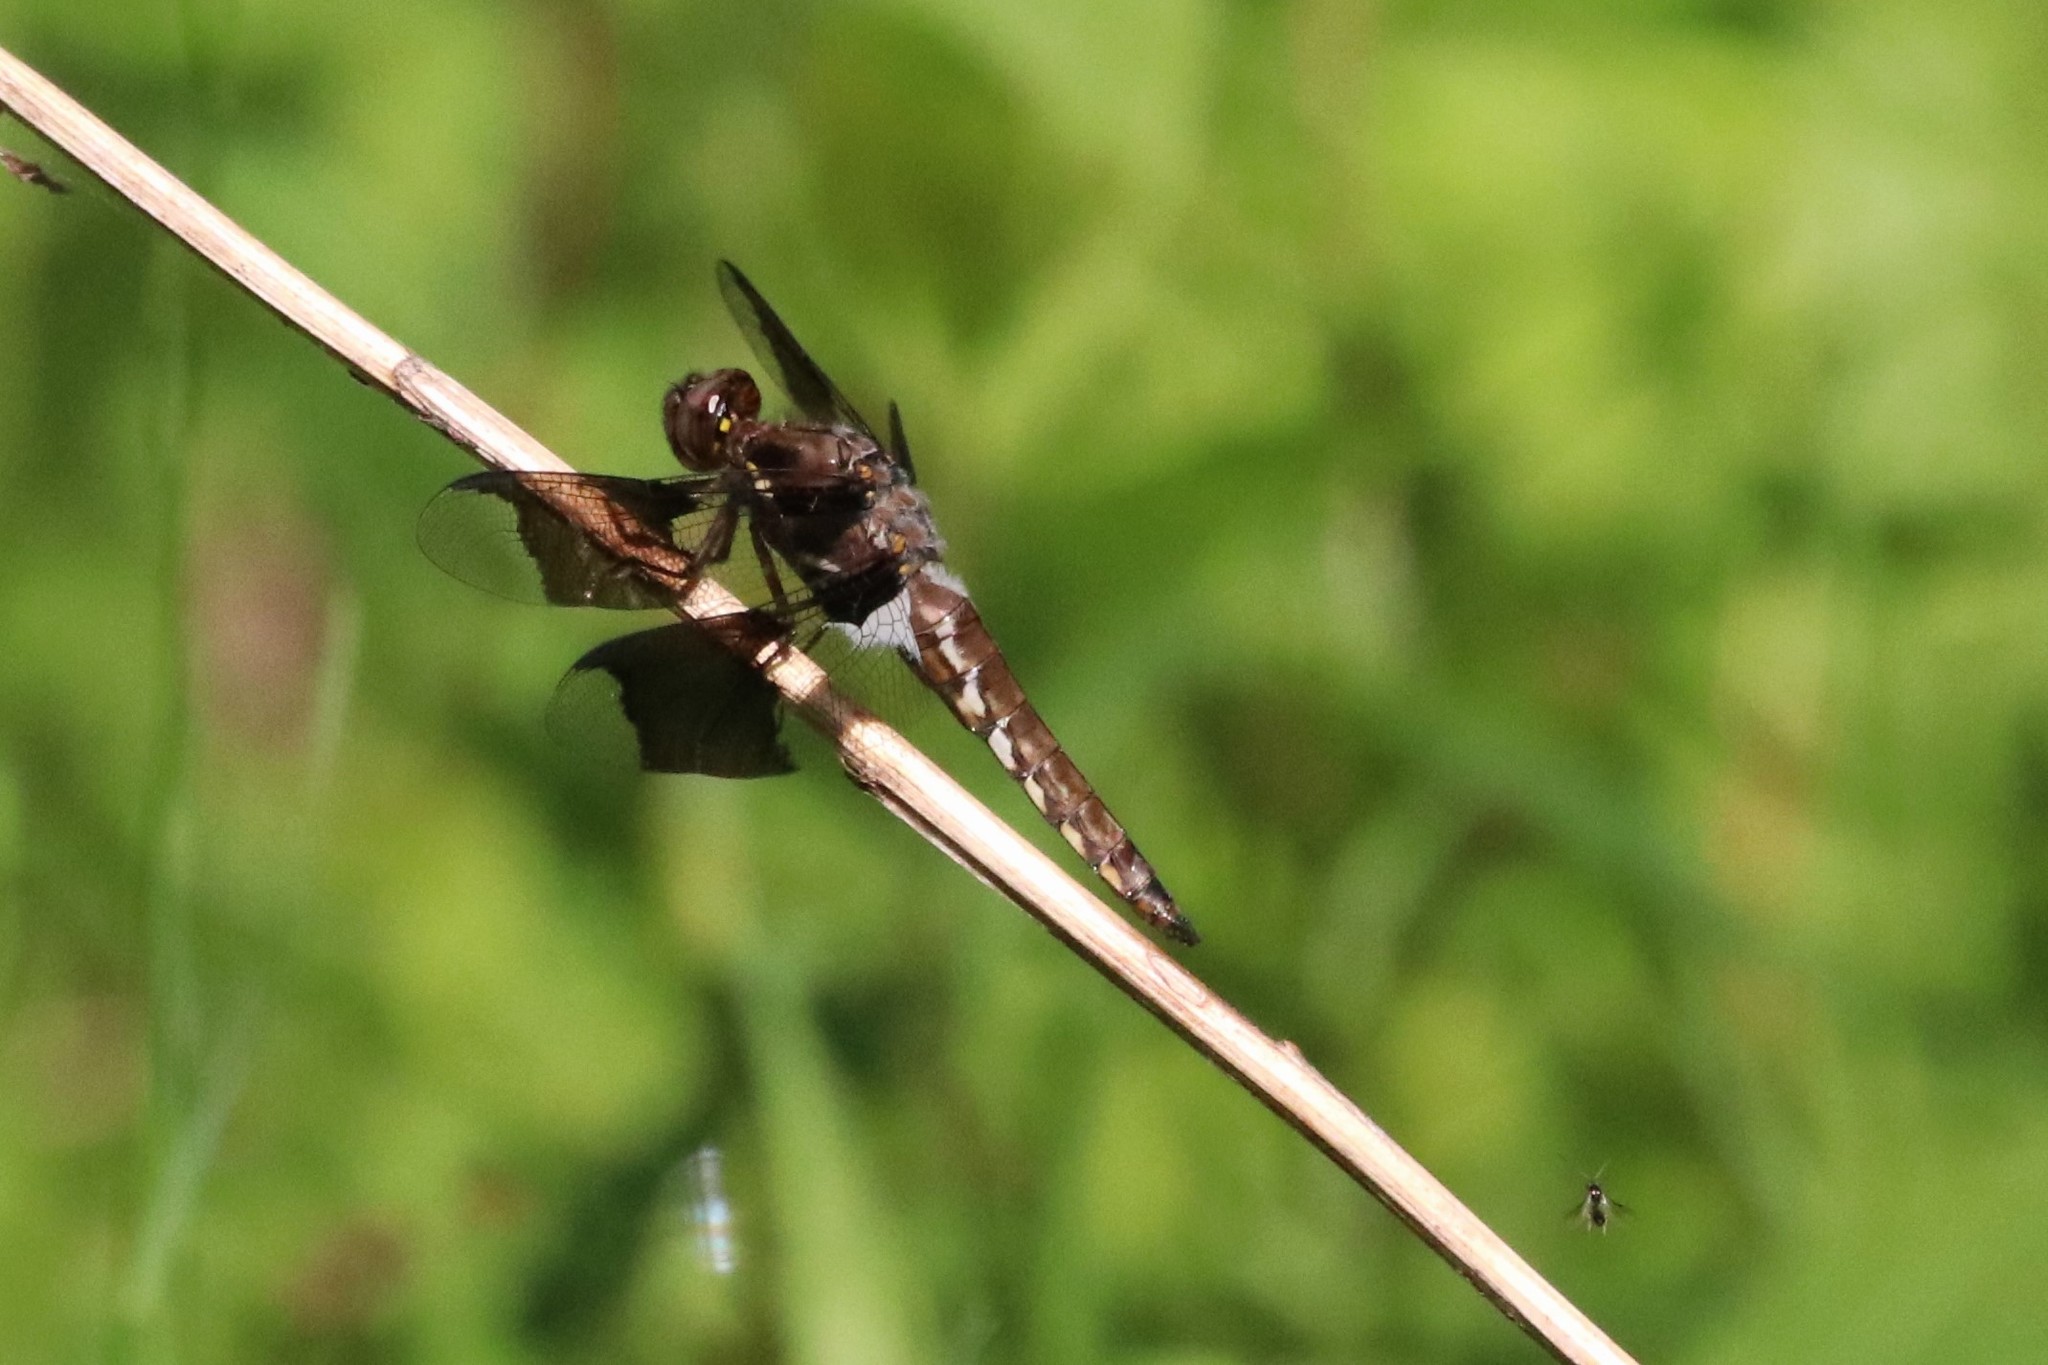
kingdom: Animalia
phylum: Arthropoda
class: Insecta
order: Odonata
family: Libellulidae
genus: Plathemis
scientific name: Plathemis lydia
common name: Common whitetail
